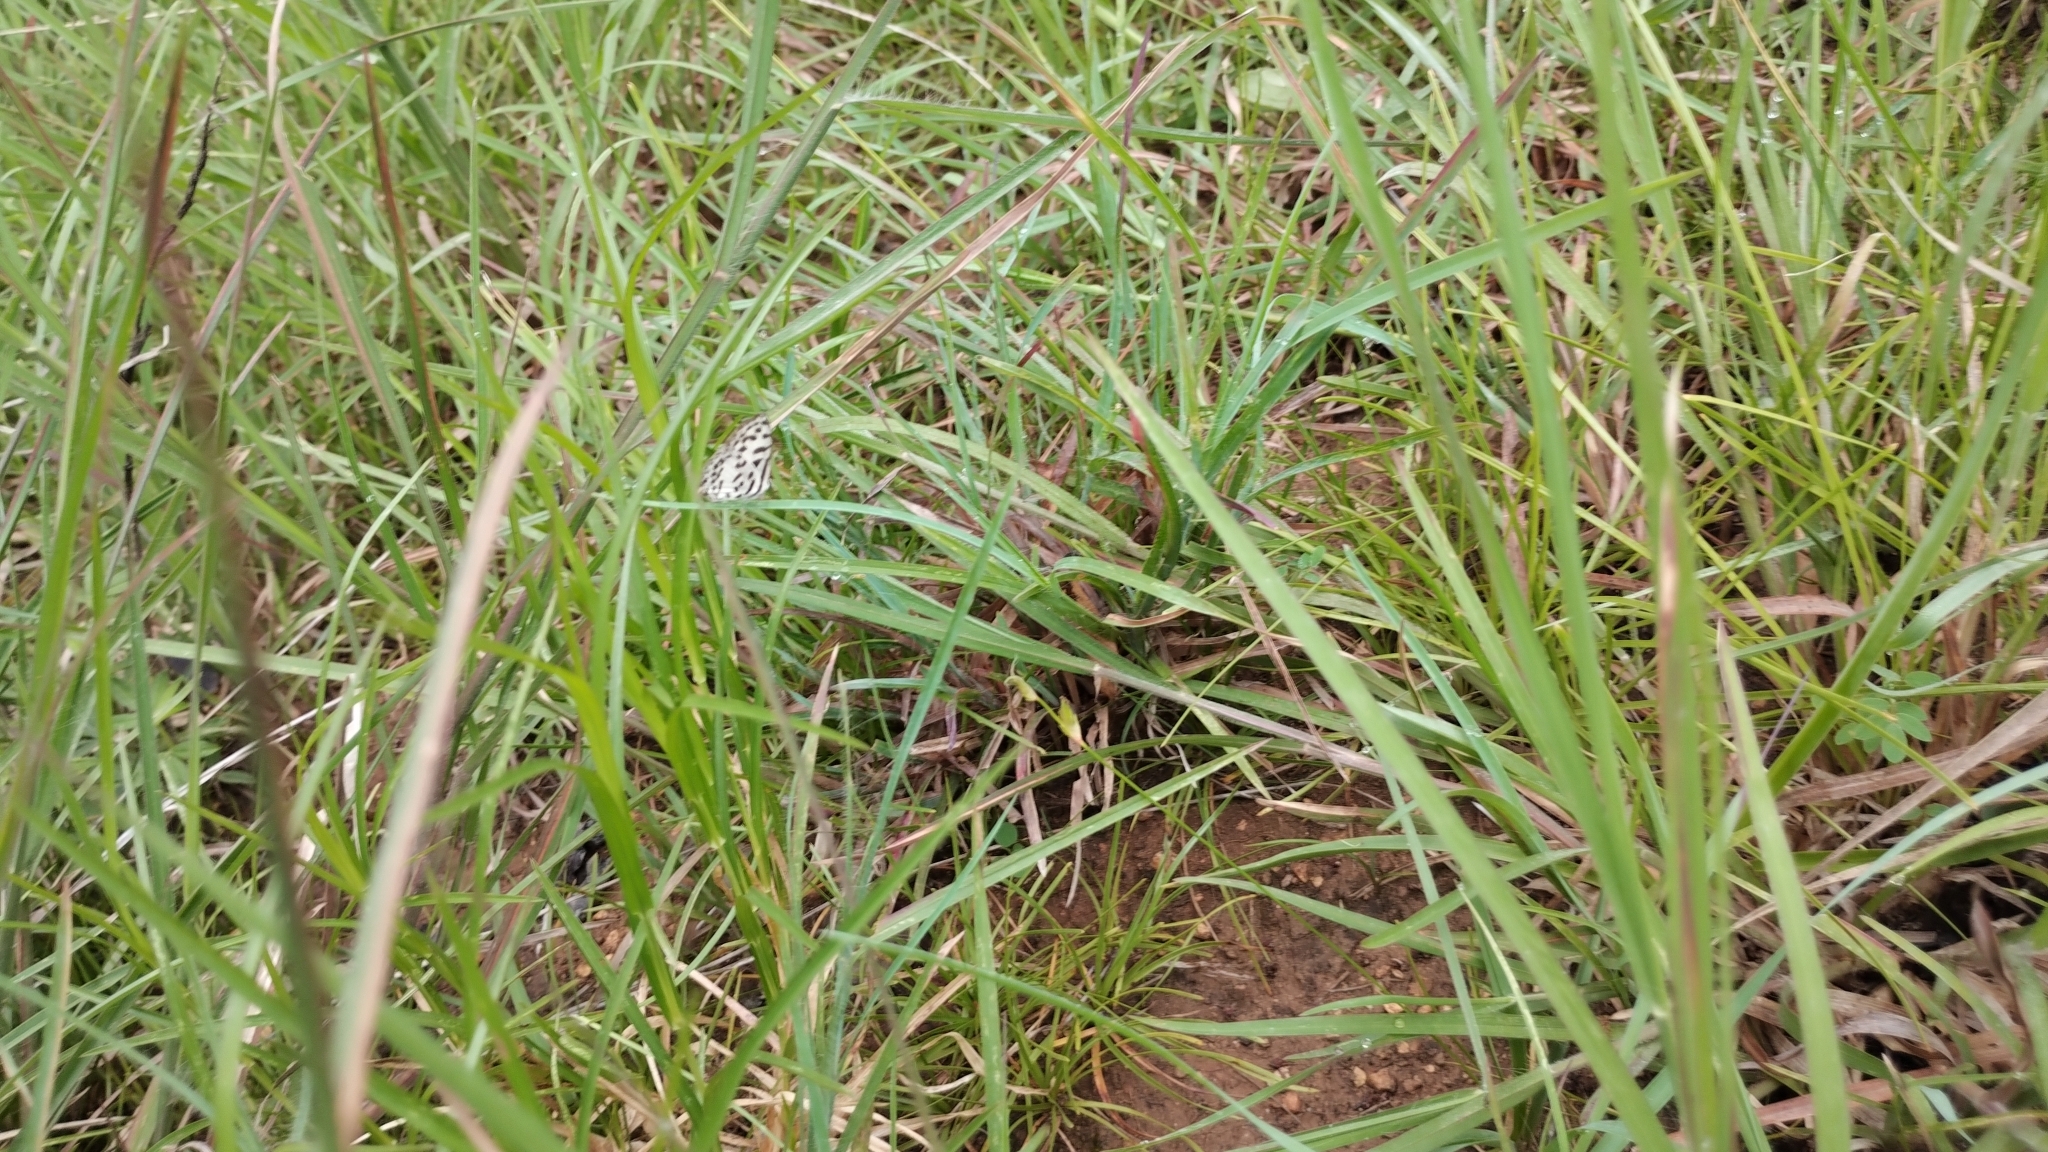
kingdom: Animalia
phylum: Arthropoda
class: Insecta
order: Lepidoptera
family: Lycaenidae
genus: Castalius
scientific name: Castalius rosimon
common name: Common pierrot
